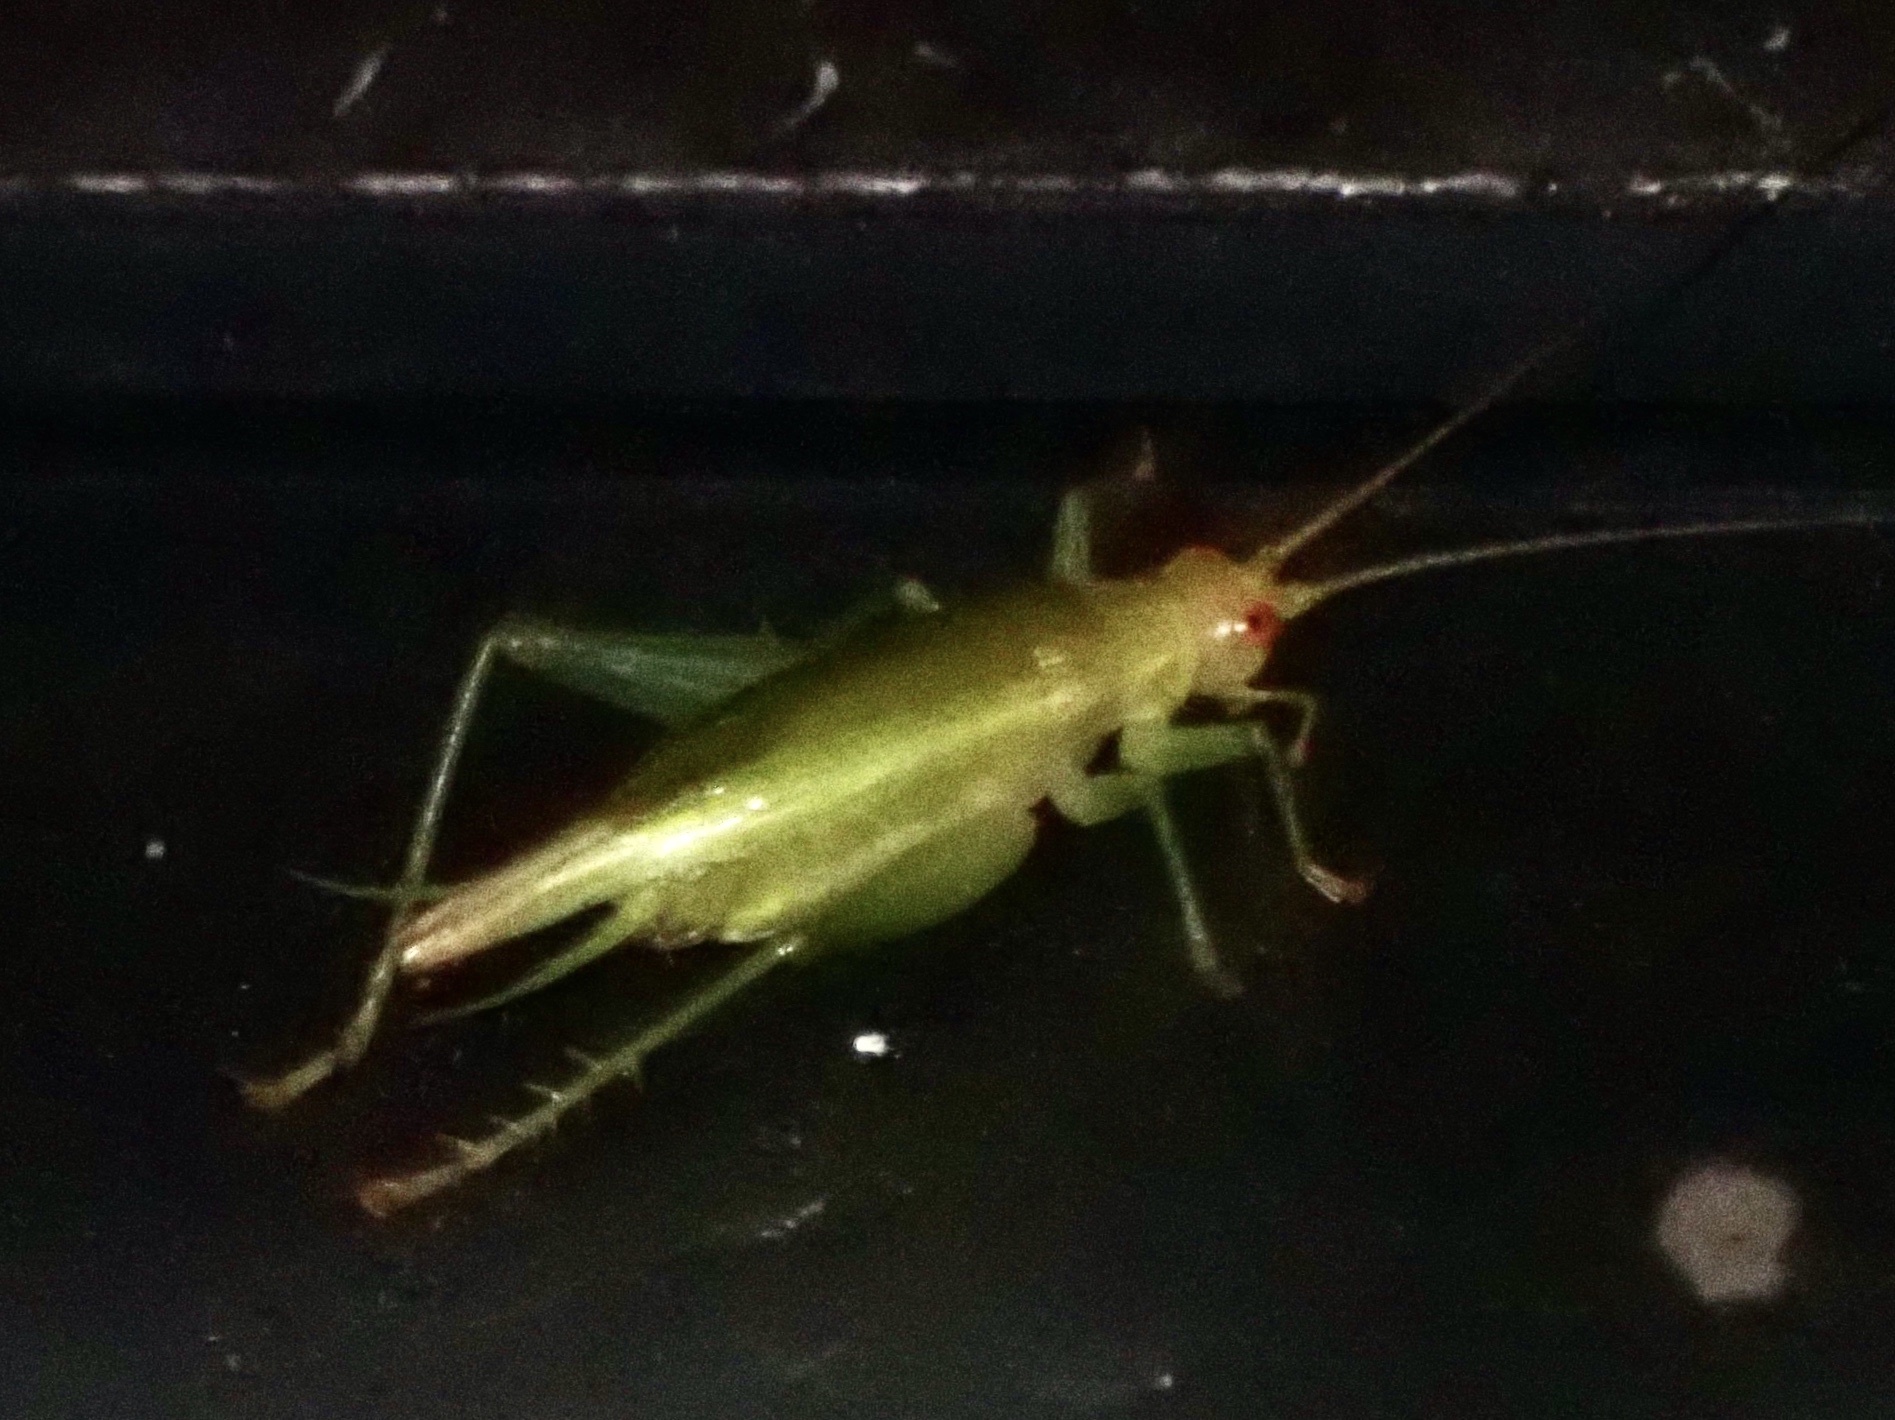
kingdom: Animalia
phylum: Arthropoda
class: Insecta
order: Orthoptera
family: Trigonidiidae
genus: Cyrtoxipha
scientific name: Cyrtoxipha columbiana
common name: Columbian trig
